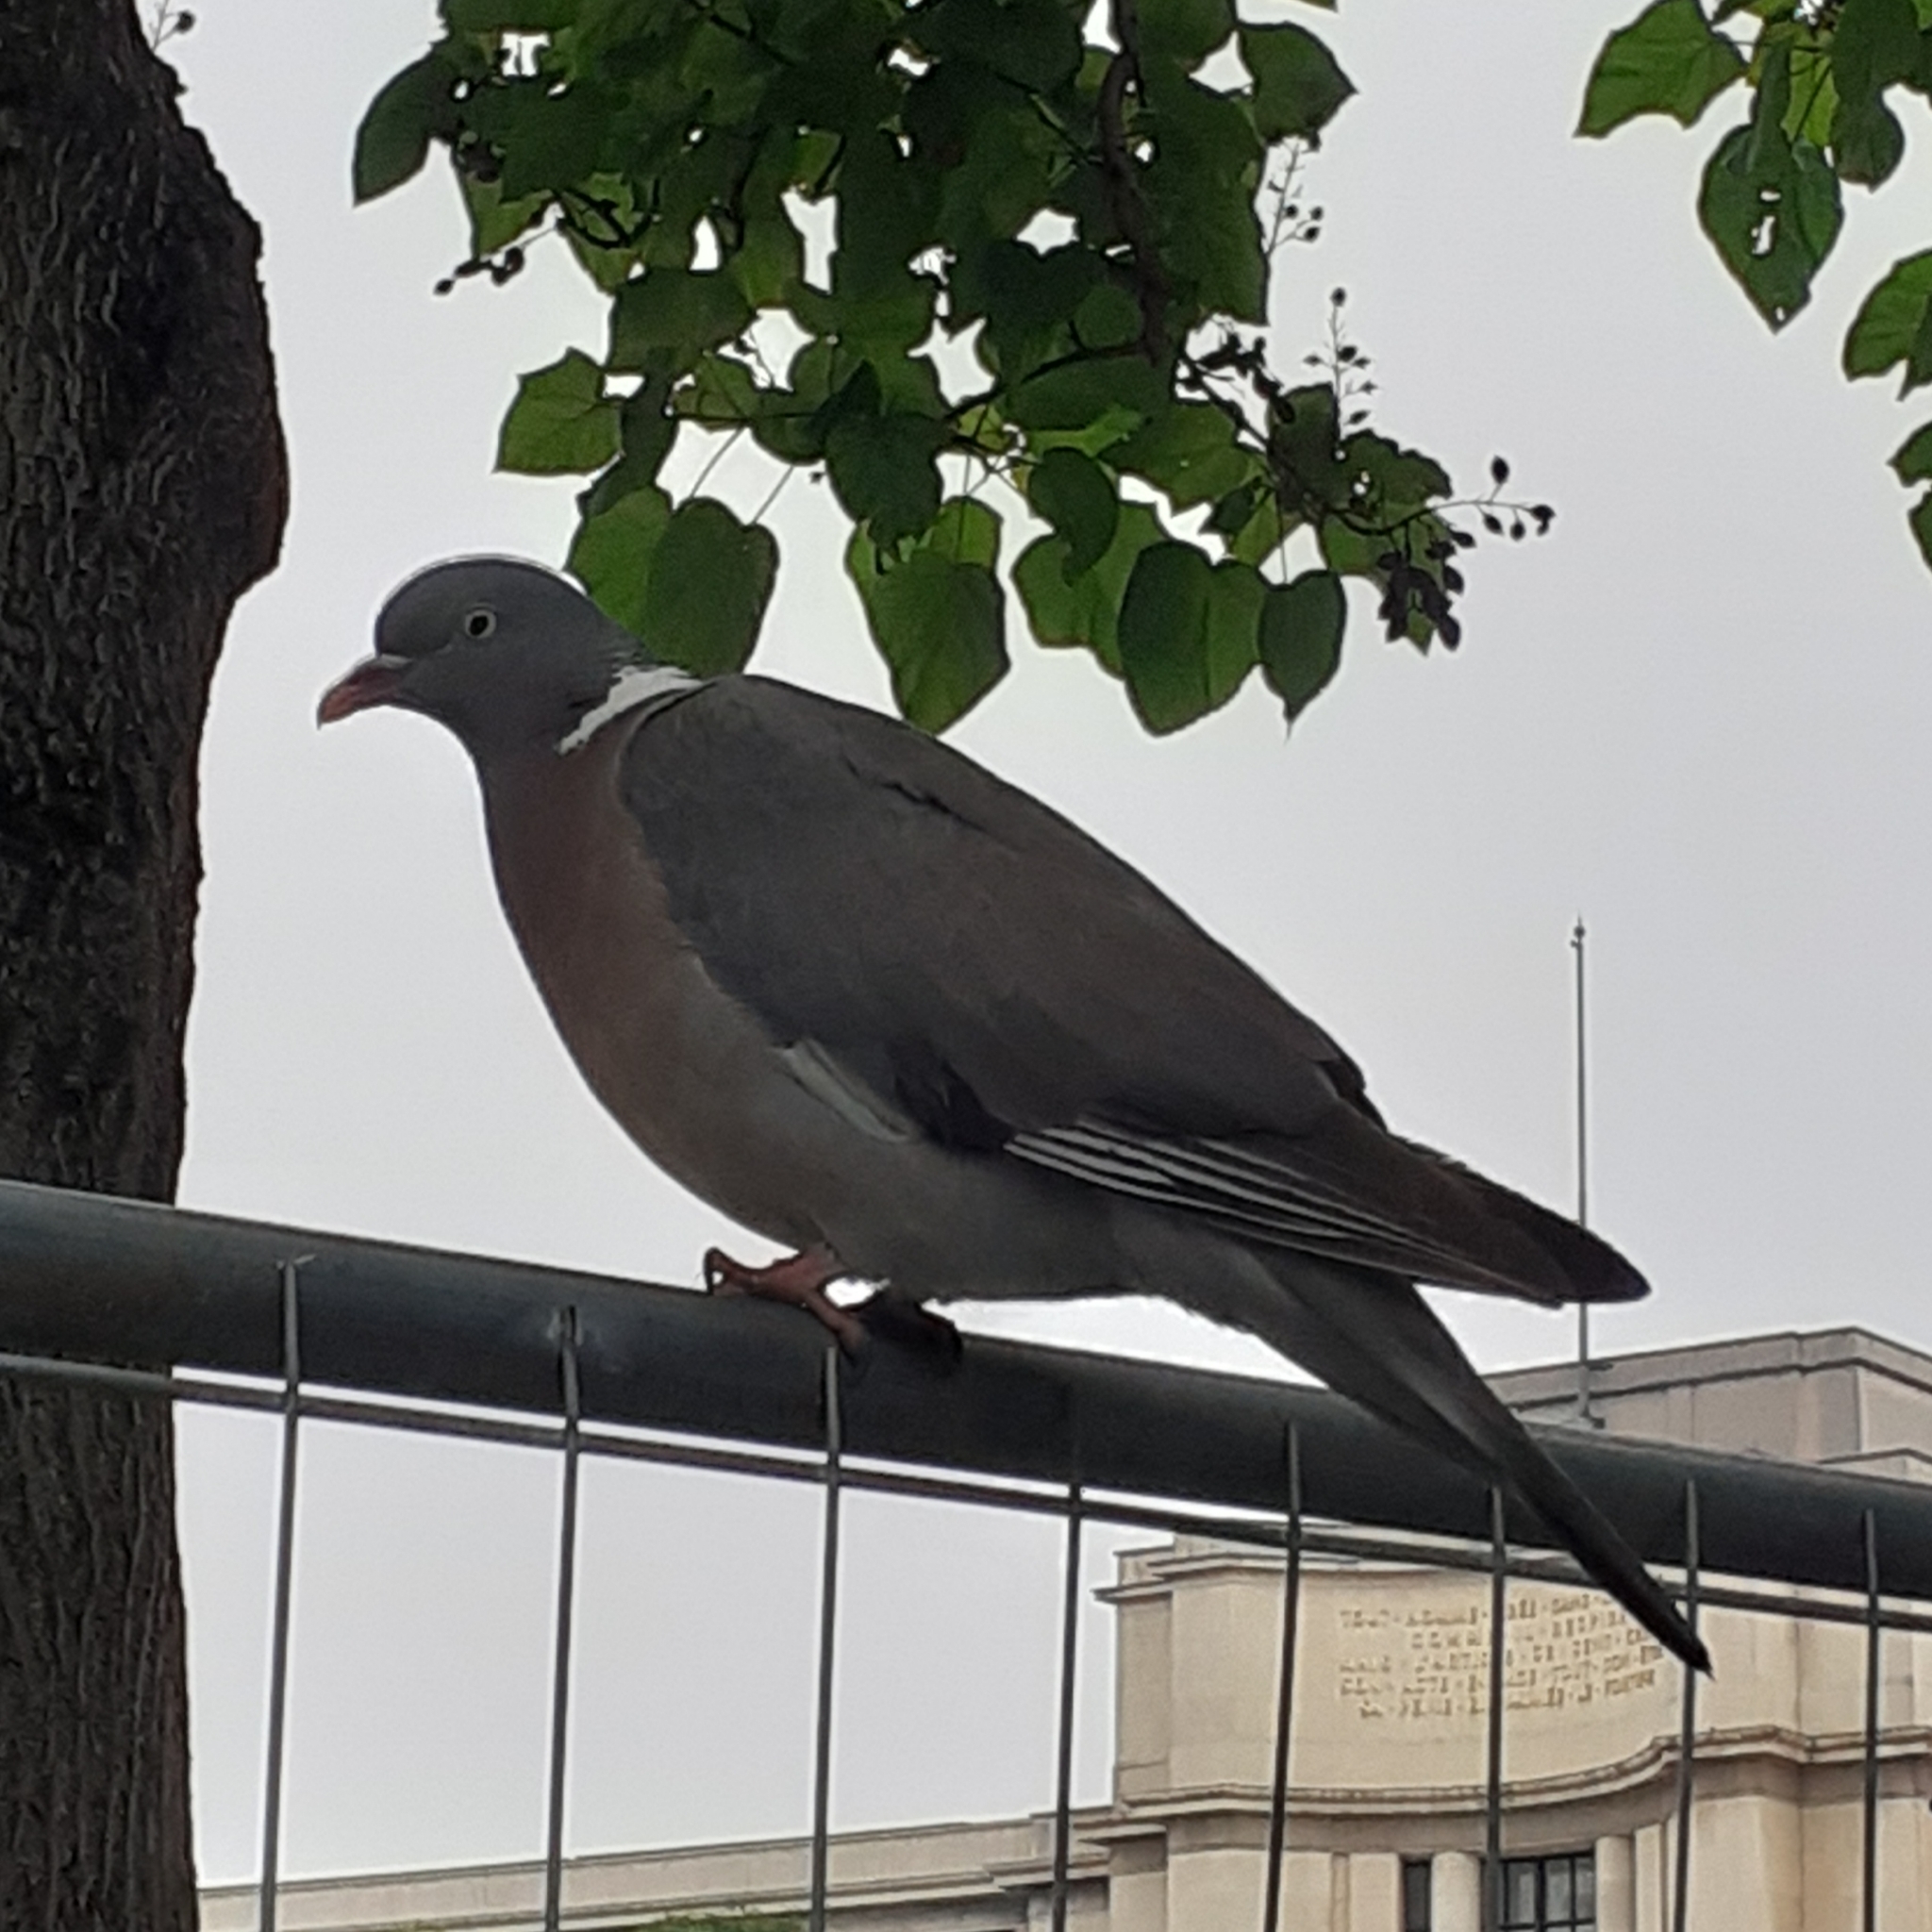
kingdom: Animalia
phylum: Chordata
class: Aves
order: Columbiformes
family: Columbidae
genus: Columba
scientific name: Columba palumbus
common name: Common wood pigeon
